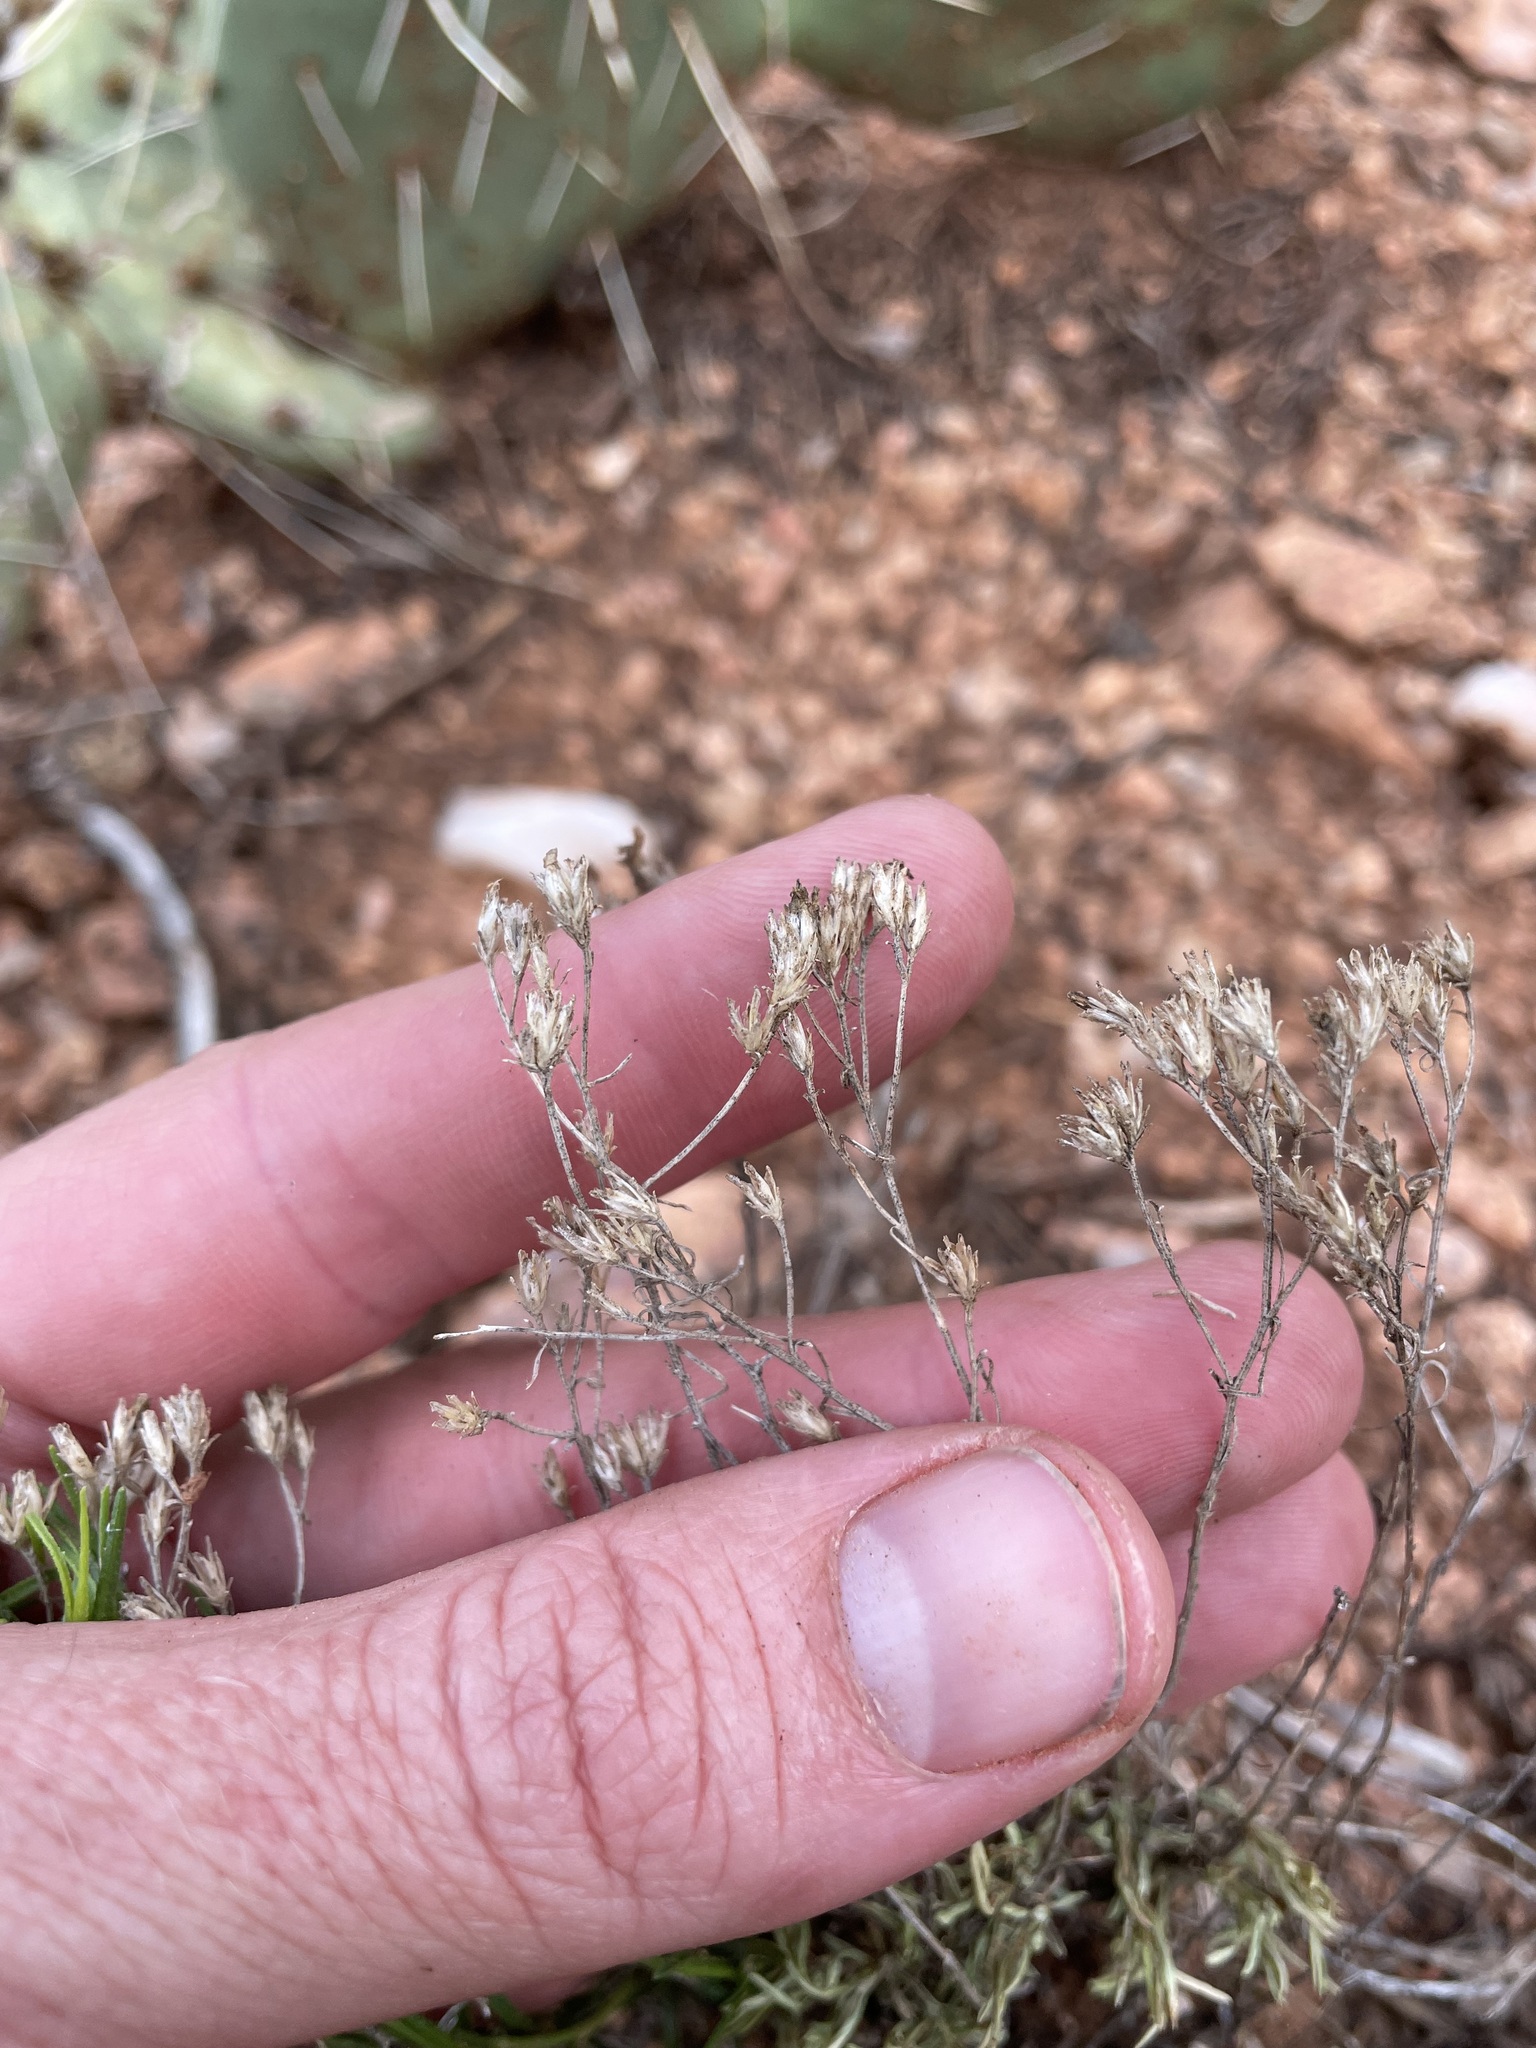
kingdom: Plantae
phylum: Tracheophyta
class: Magnoliopsida
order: Asterales
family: Asteraceae
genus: Gutierrezia
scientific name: Gutierrezia sarothrae
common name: Broom snakeweed
